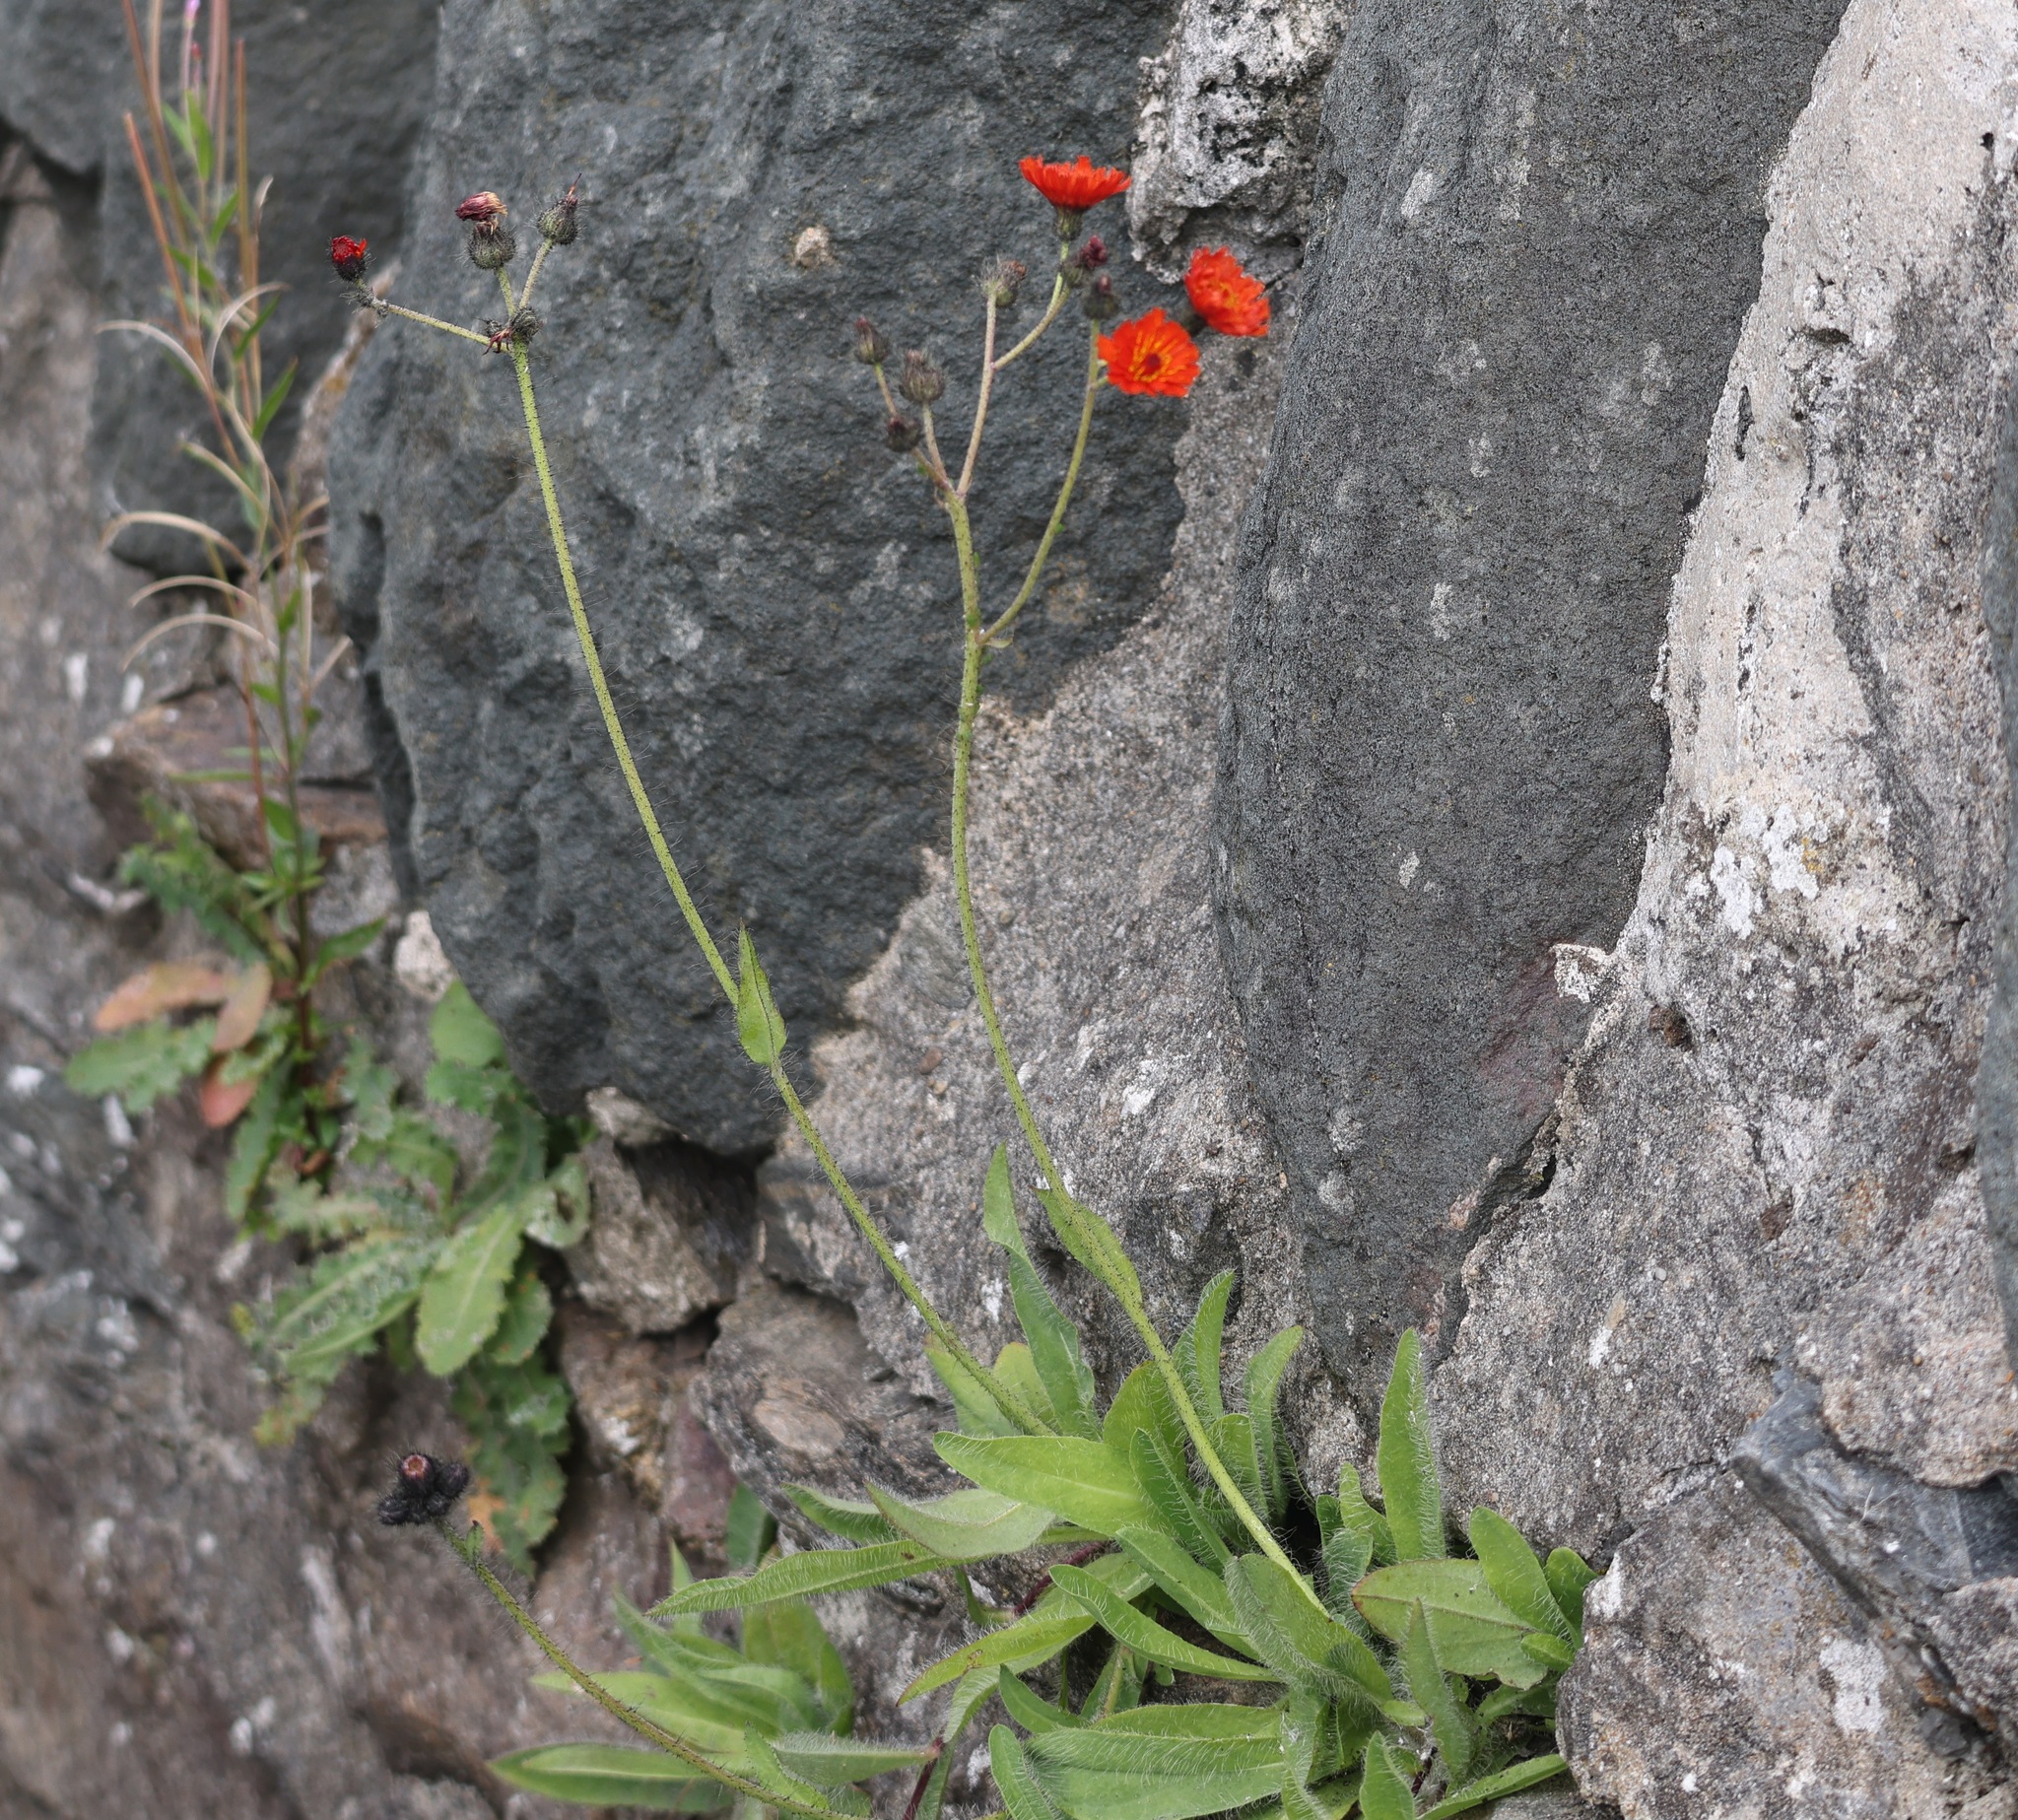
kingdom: Plantae
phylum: Tracheophyta
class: Magnoliopsida
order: Asterales
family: Asteraceae
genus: Pilosella
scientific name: Pilosella aurantiaca
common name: Fox-and-cubs
